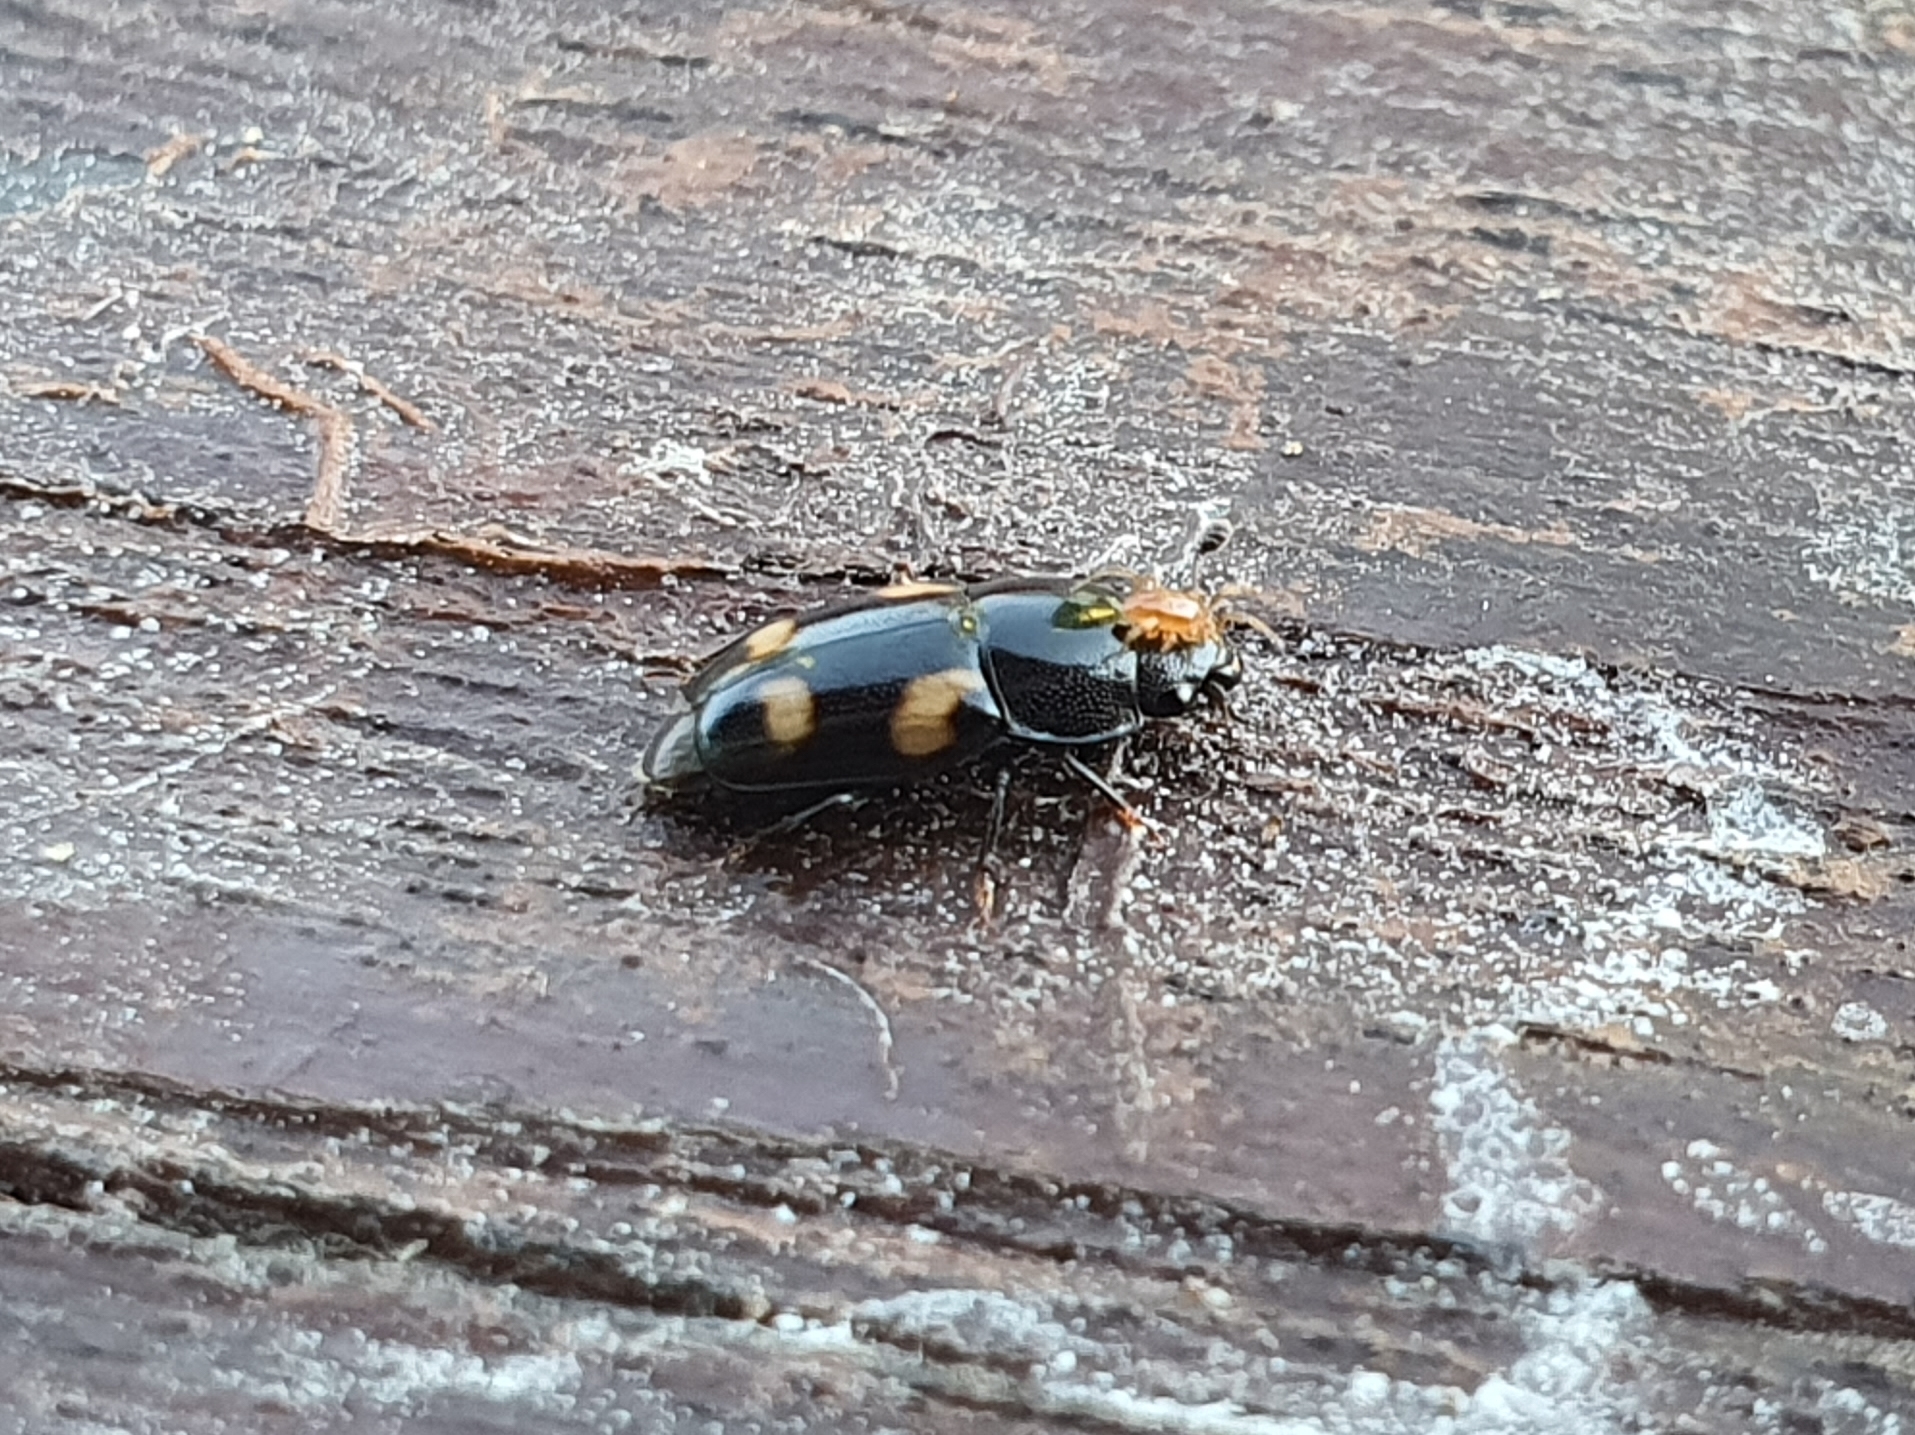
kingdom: Animalia
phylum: Arthropoda
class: Insecta
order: Coleoptera
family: Nitidulidae
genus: Glischrochilus
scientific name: Glischrochilus quadrisignatus
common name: Picnic beetle
